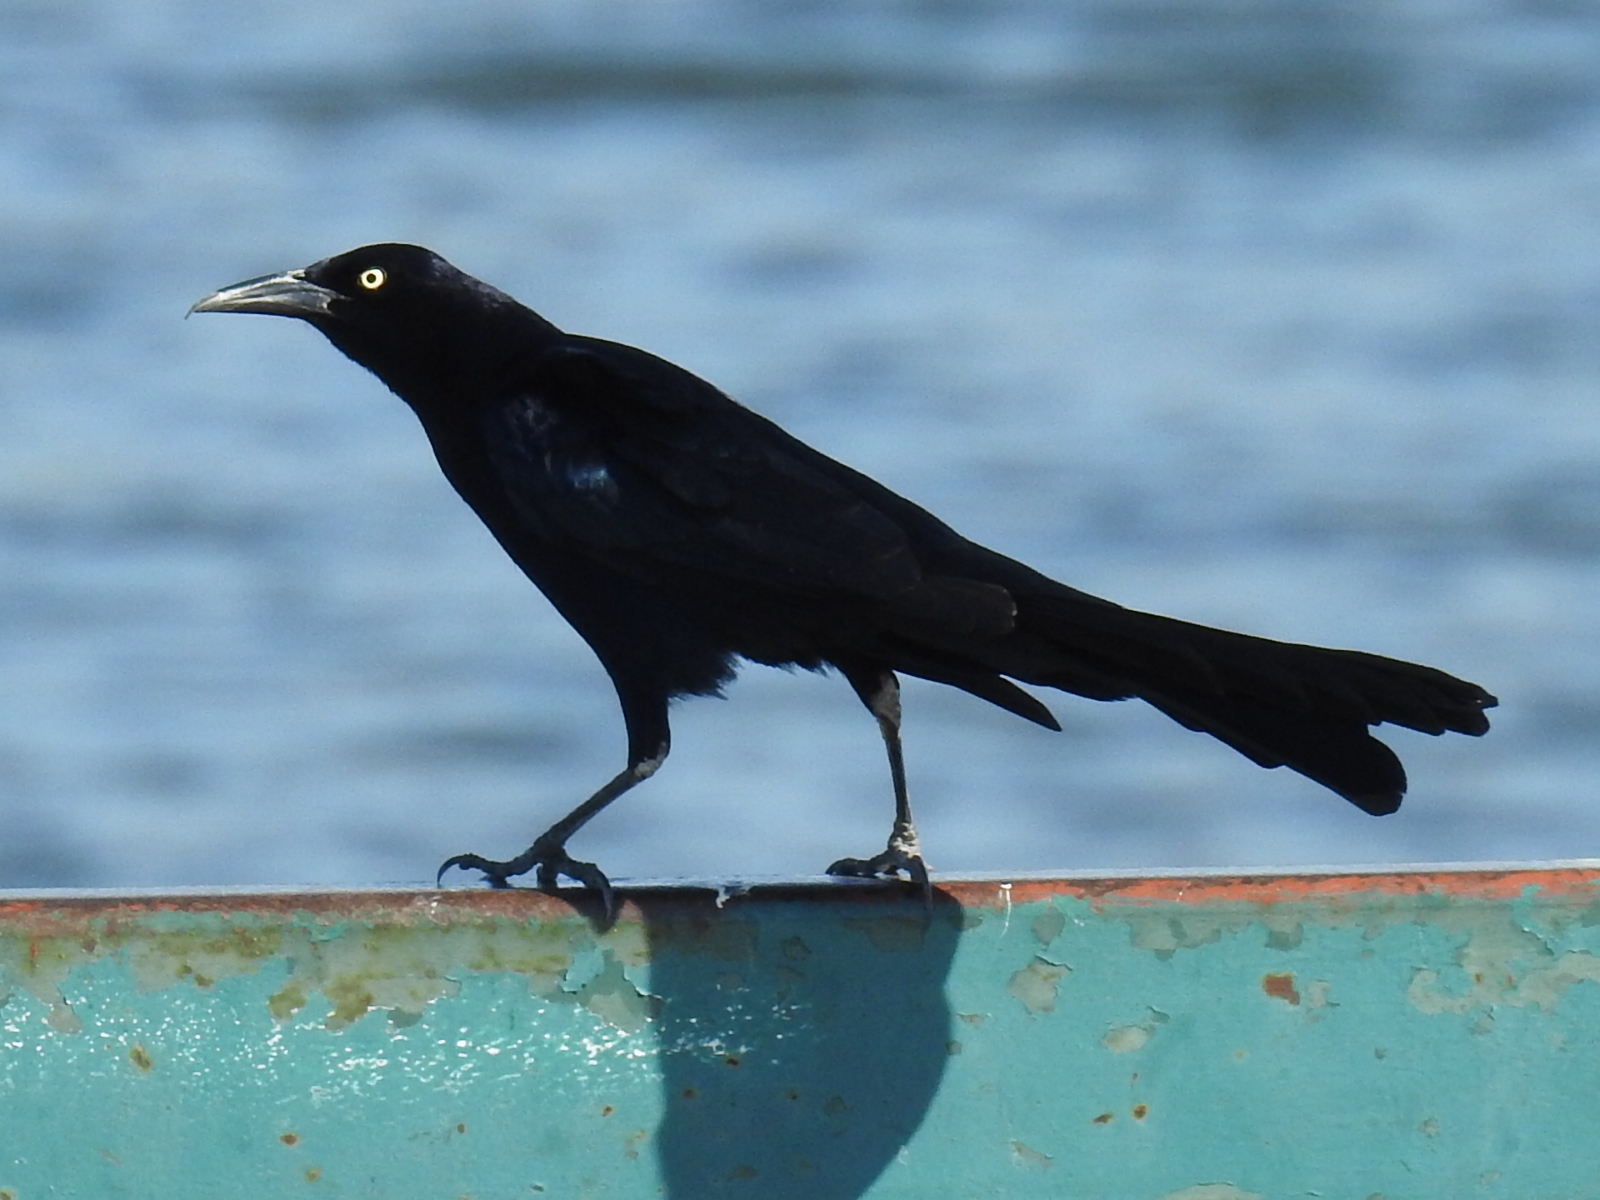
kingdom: Animalia
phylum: Chordata
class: Aves
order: Passeriformes
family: Icteridae
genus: Quiscalus
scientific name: Quiscalus mexicanus
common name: Great-tailed grackle
